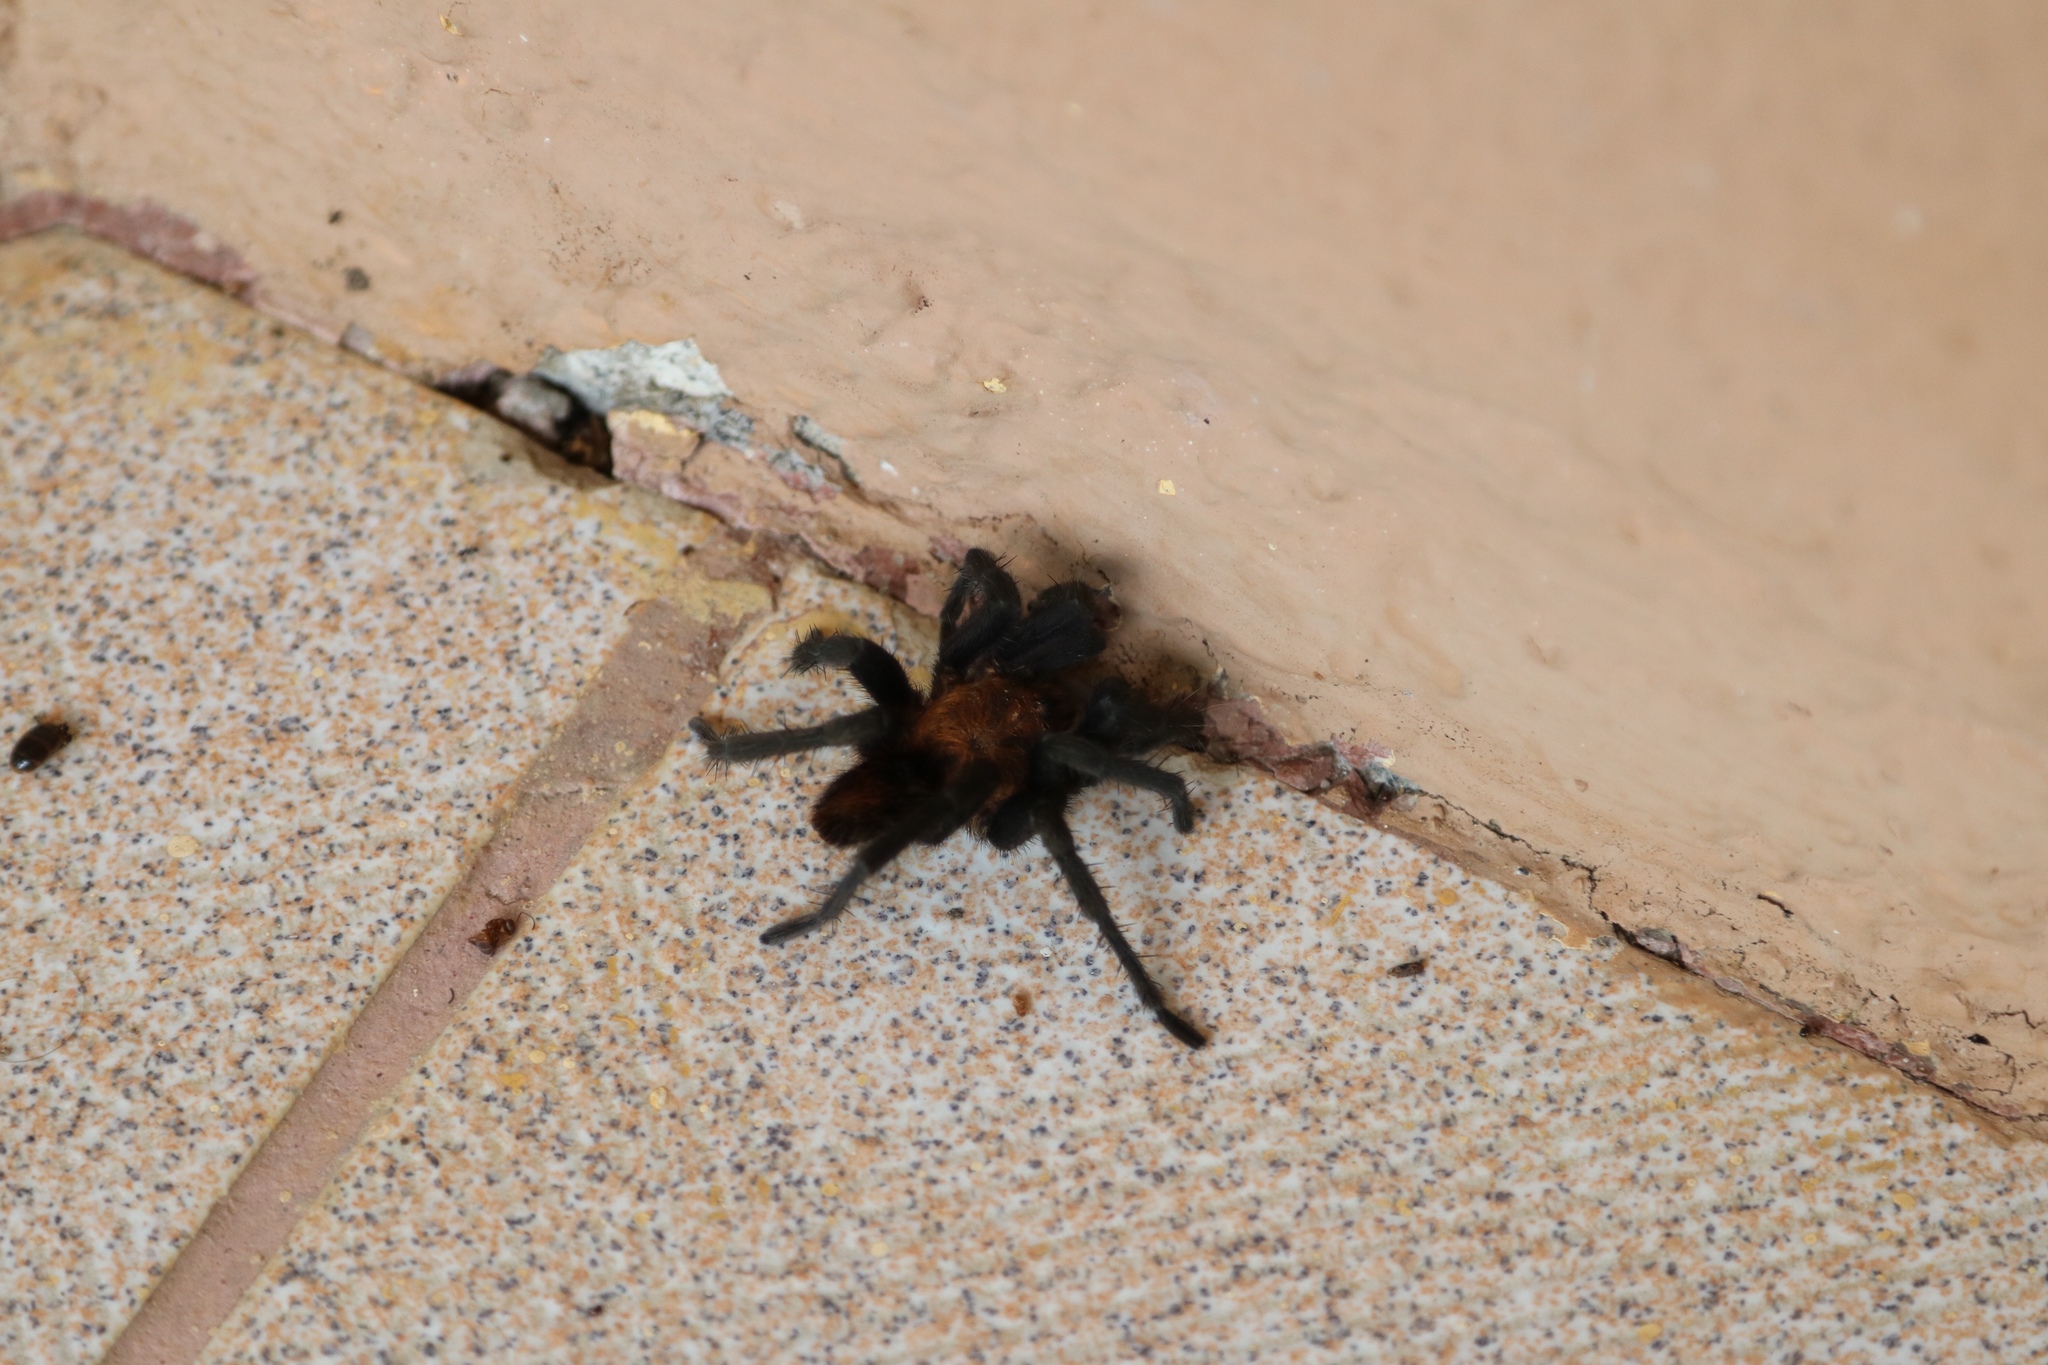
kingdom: Animalia
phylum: Arthropoda
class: Arachnida
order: Araneae
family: Theraphosidae
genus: Davus
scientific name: Davus ruficeps
